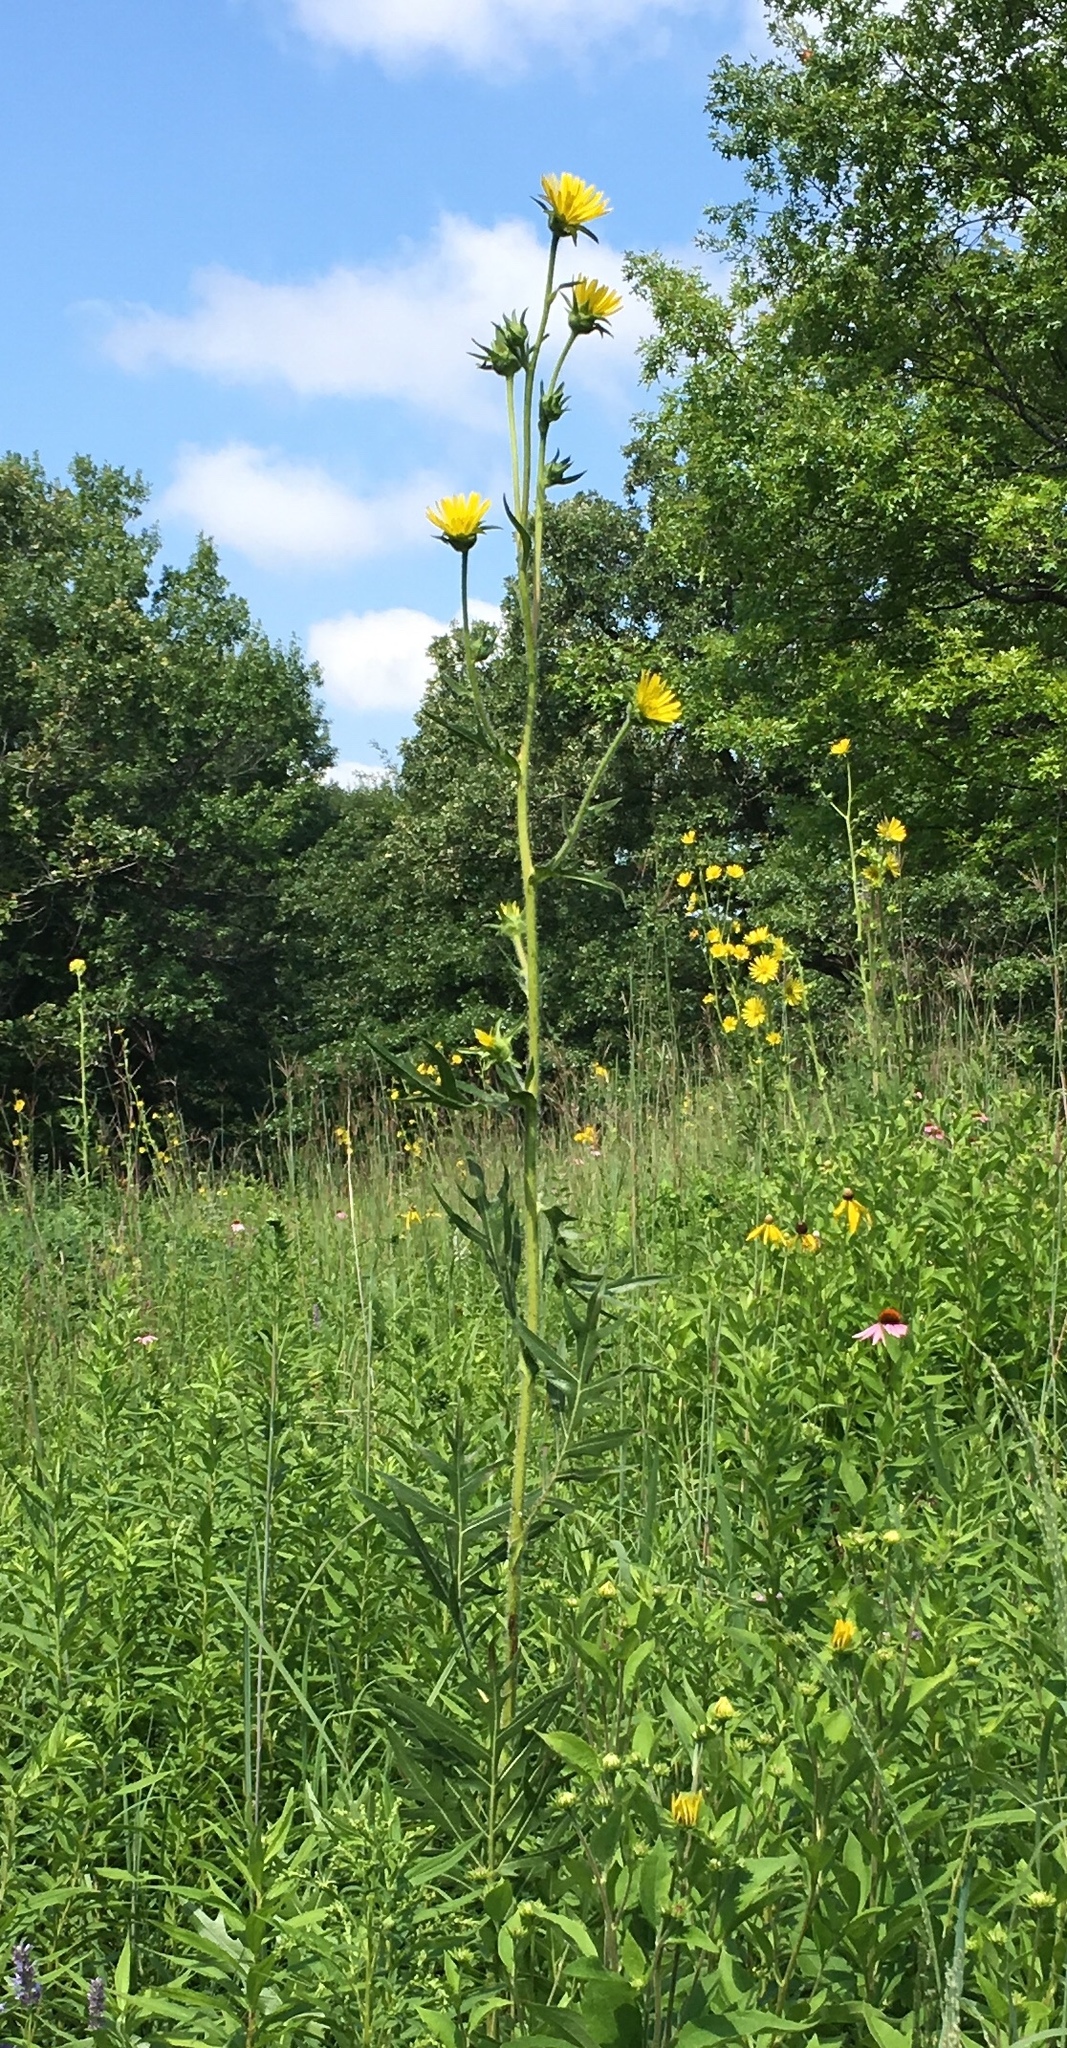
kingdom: Plantae
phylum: Tracheophyta
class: Magnoliopsida
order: Asterales
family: Asteraceae
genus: Silphium
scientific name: Silphium laciniatum
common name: Polarplant
